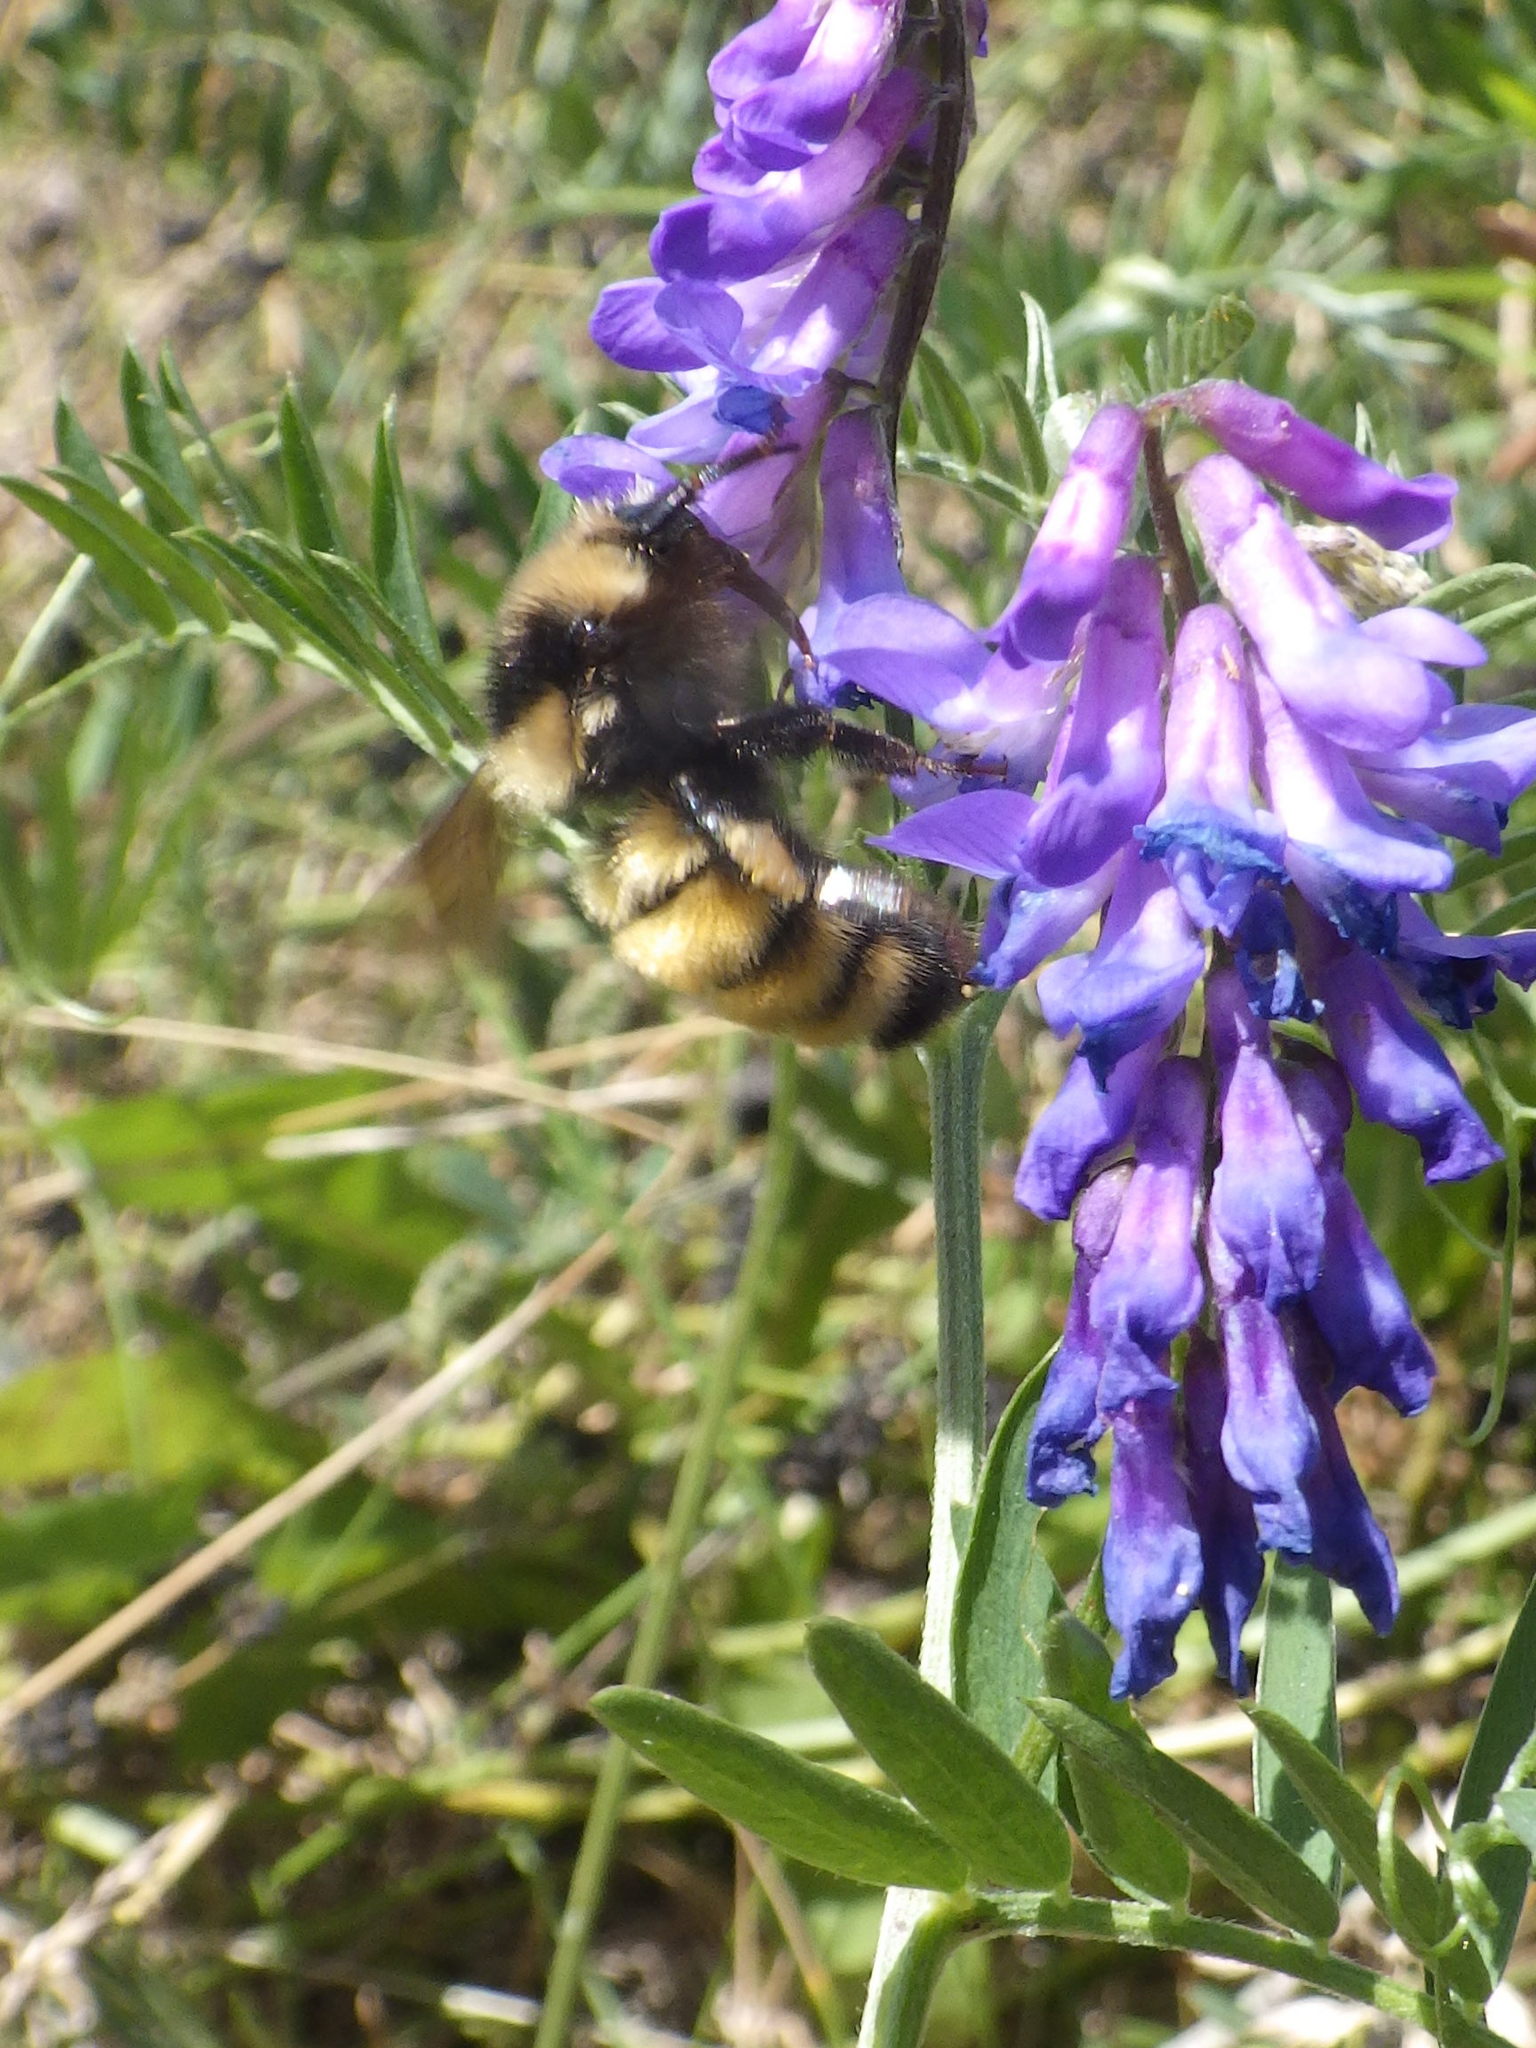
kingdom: Animalia
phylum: Arthropoda
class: Insecta
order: Hymenoptera
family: Apidae
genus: Bombus
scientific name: Bombus borealis
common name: Northern amber bumble bee
